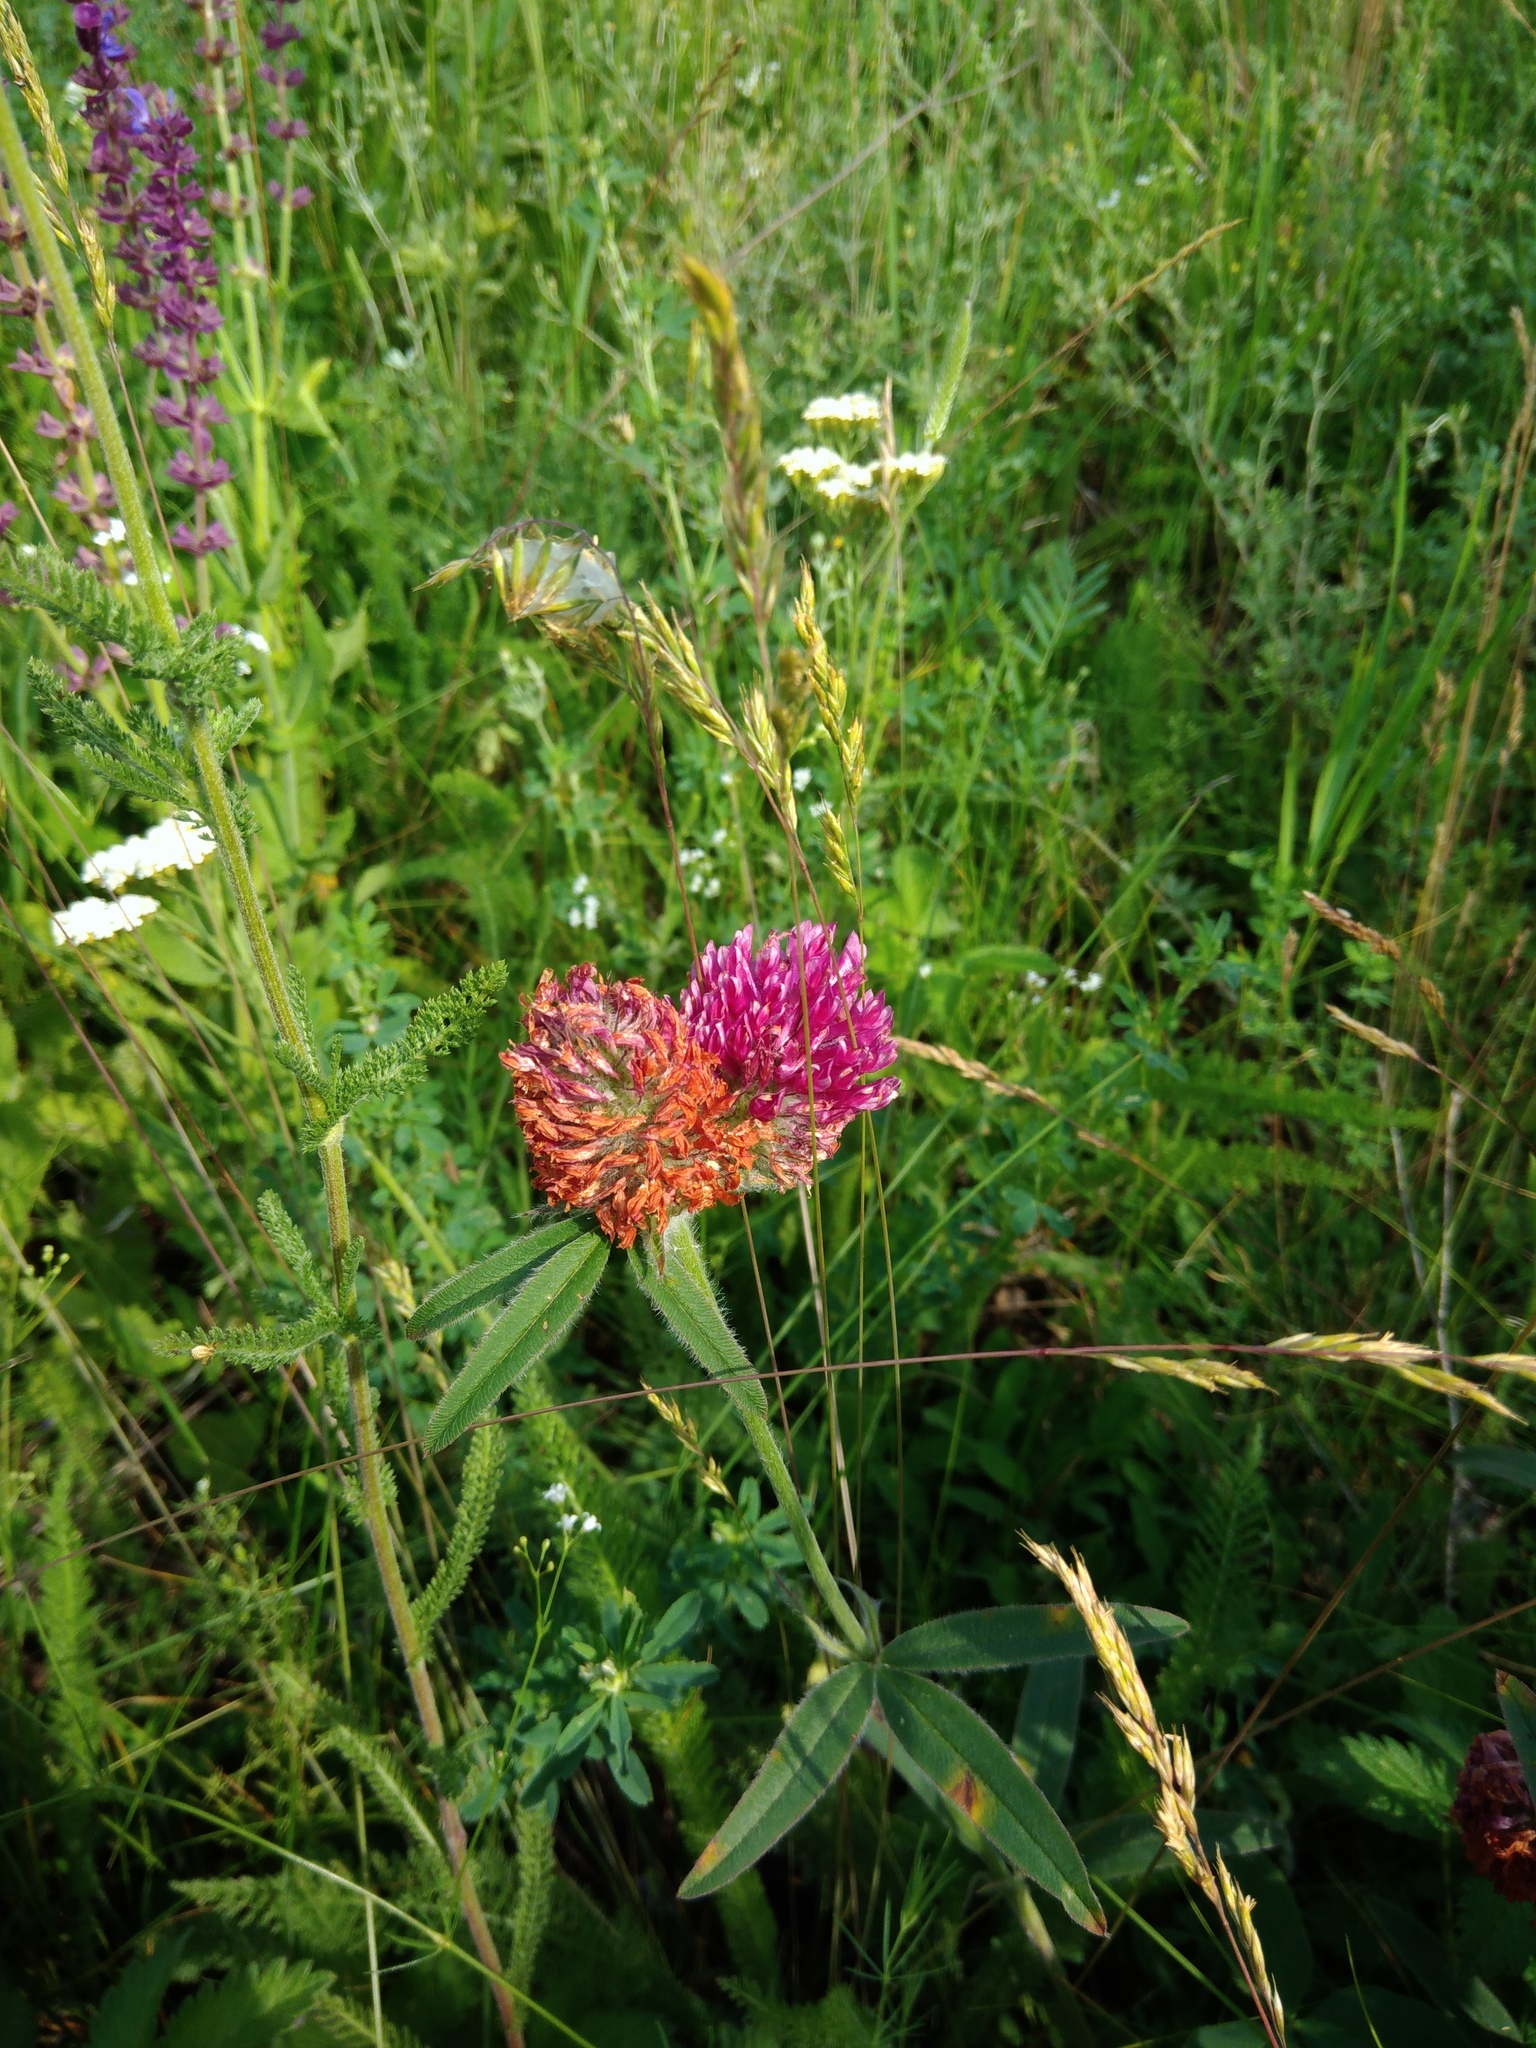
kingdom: Plantae
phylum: Tracheophyta
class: Magnoliopsida
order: Fabales
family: Fabaceae
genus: Trifolium
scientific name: Trifolium alpestre
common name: Owl-head clover
